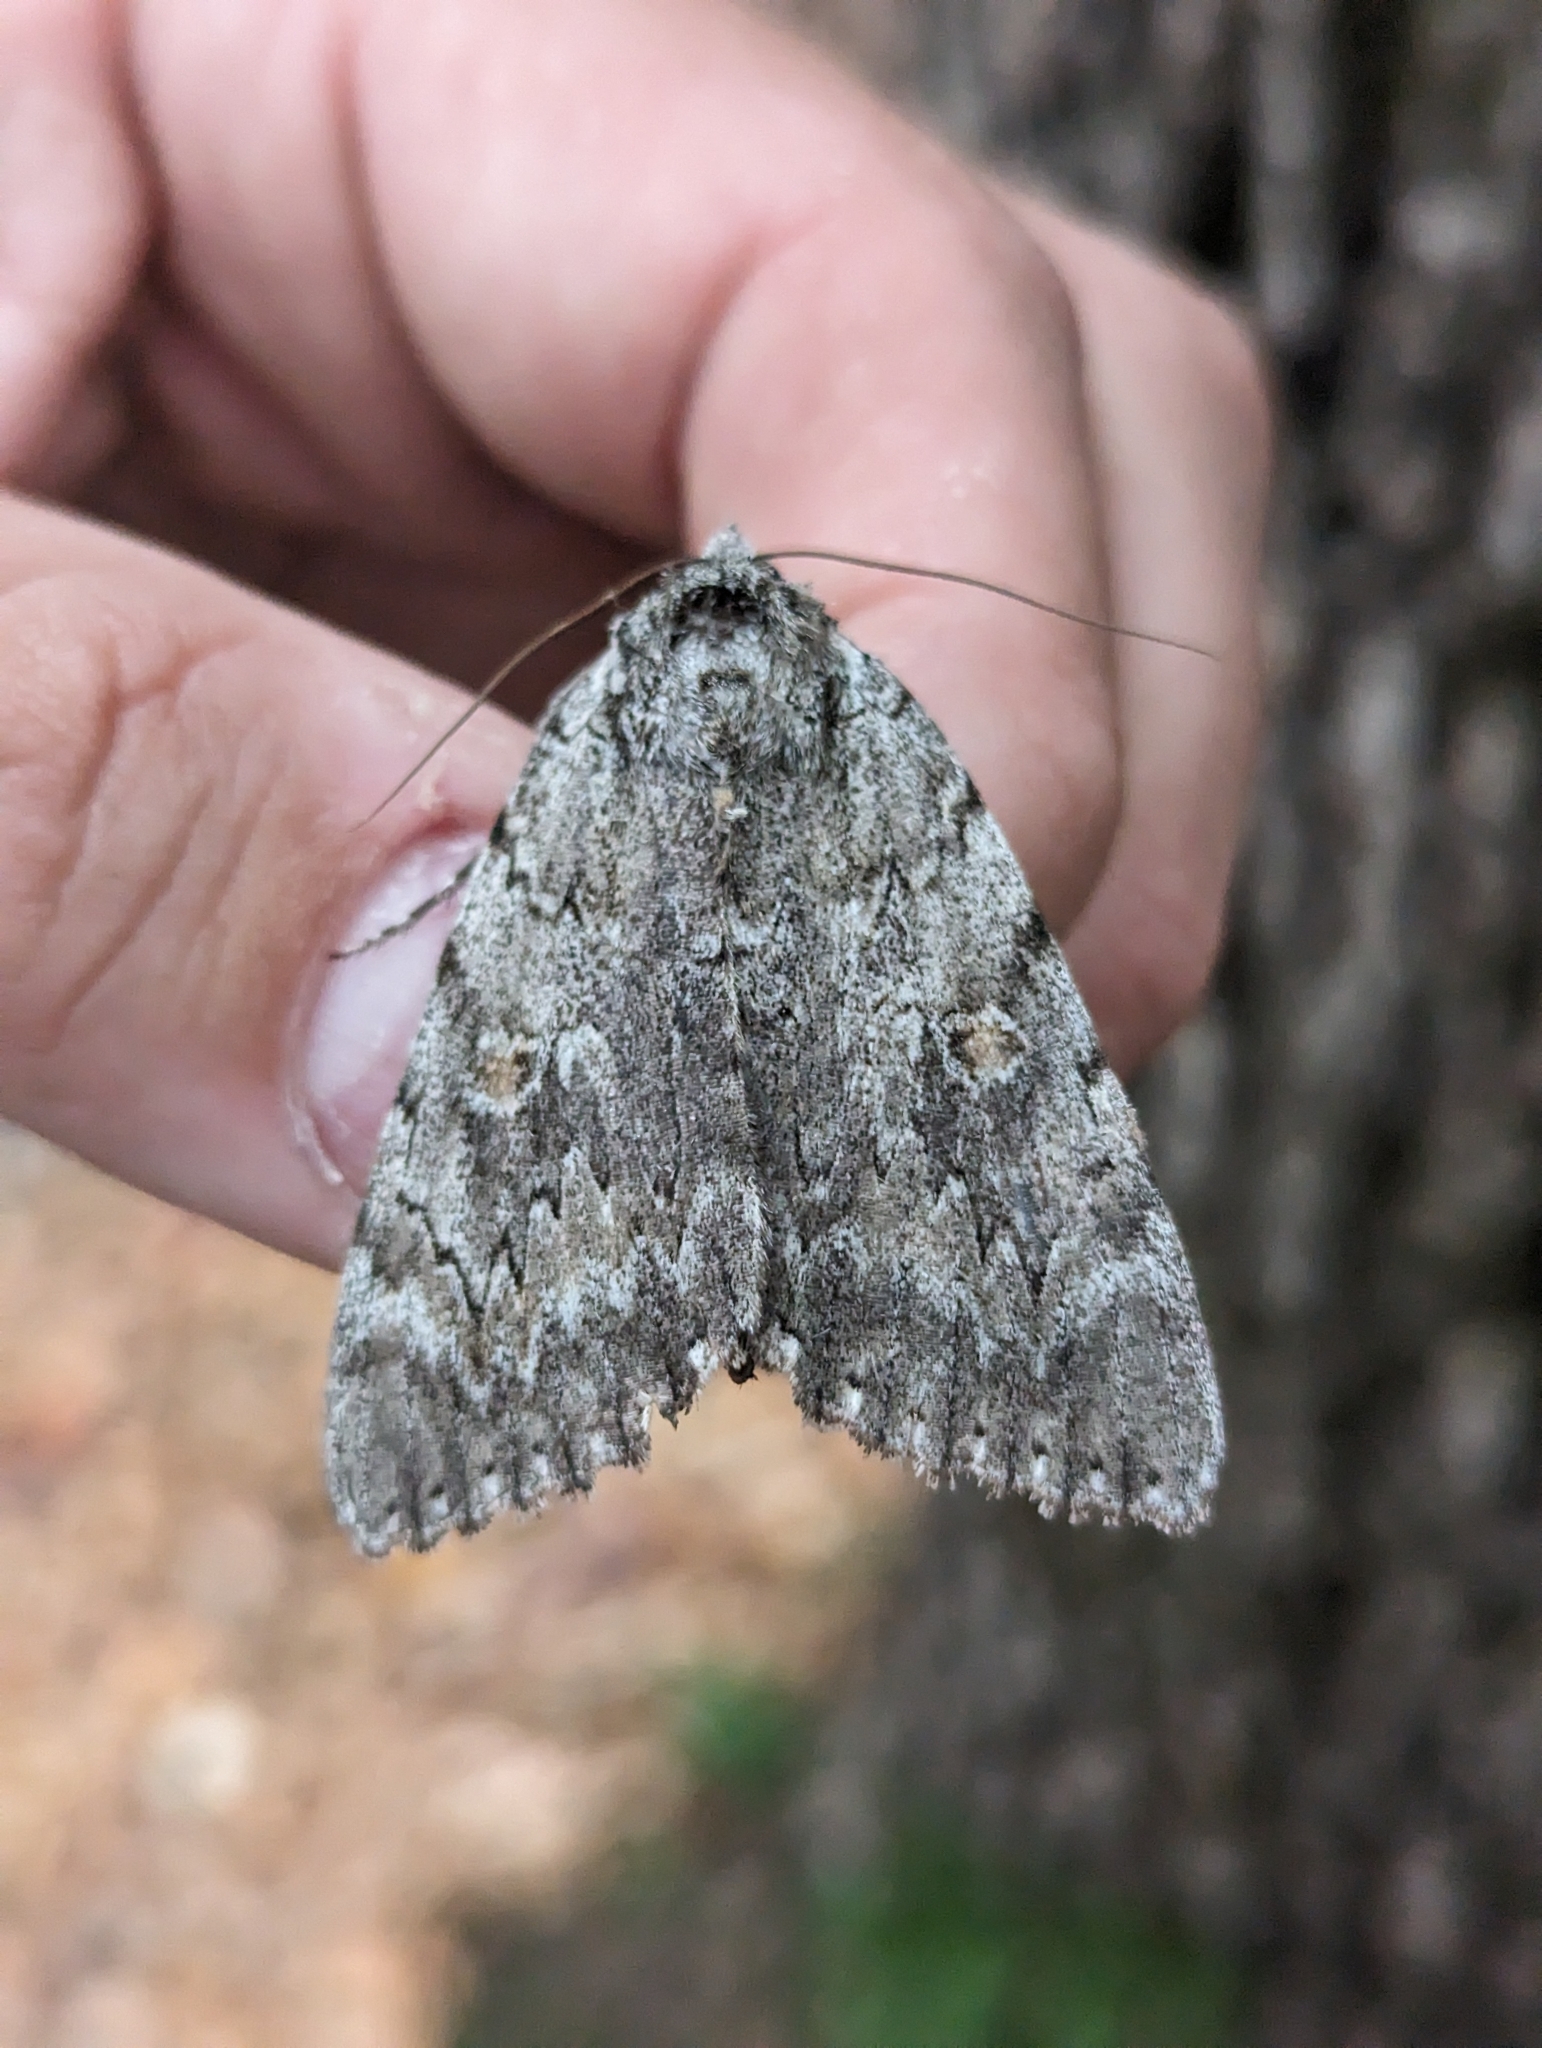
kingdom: Animalia
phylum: Arthropoda
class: Insecta
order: Lepidoptera
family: Erebidae
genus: Catocala
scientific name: Catocala robinsoni
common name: Robinson's underwing
